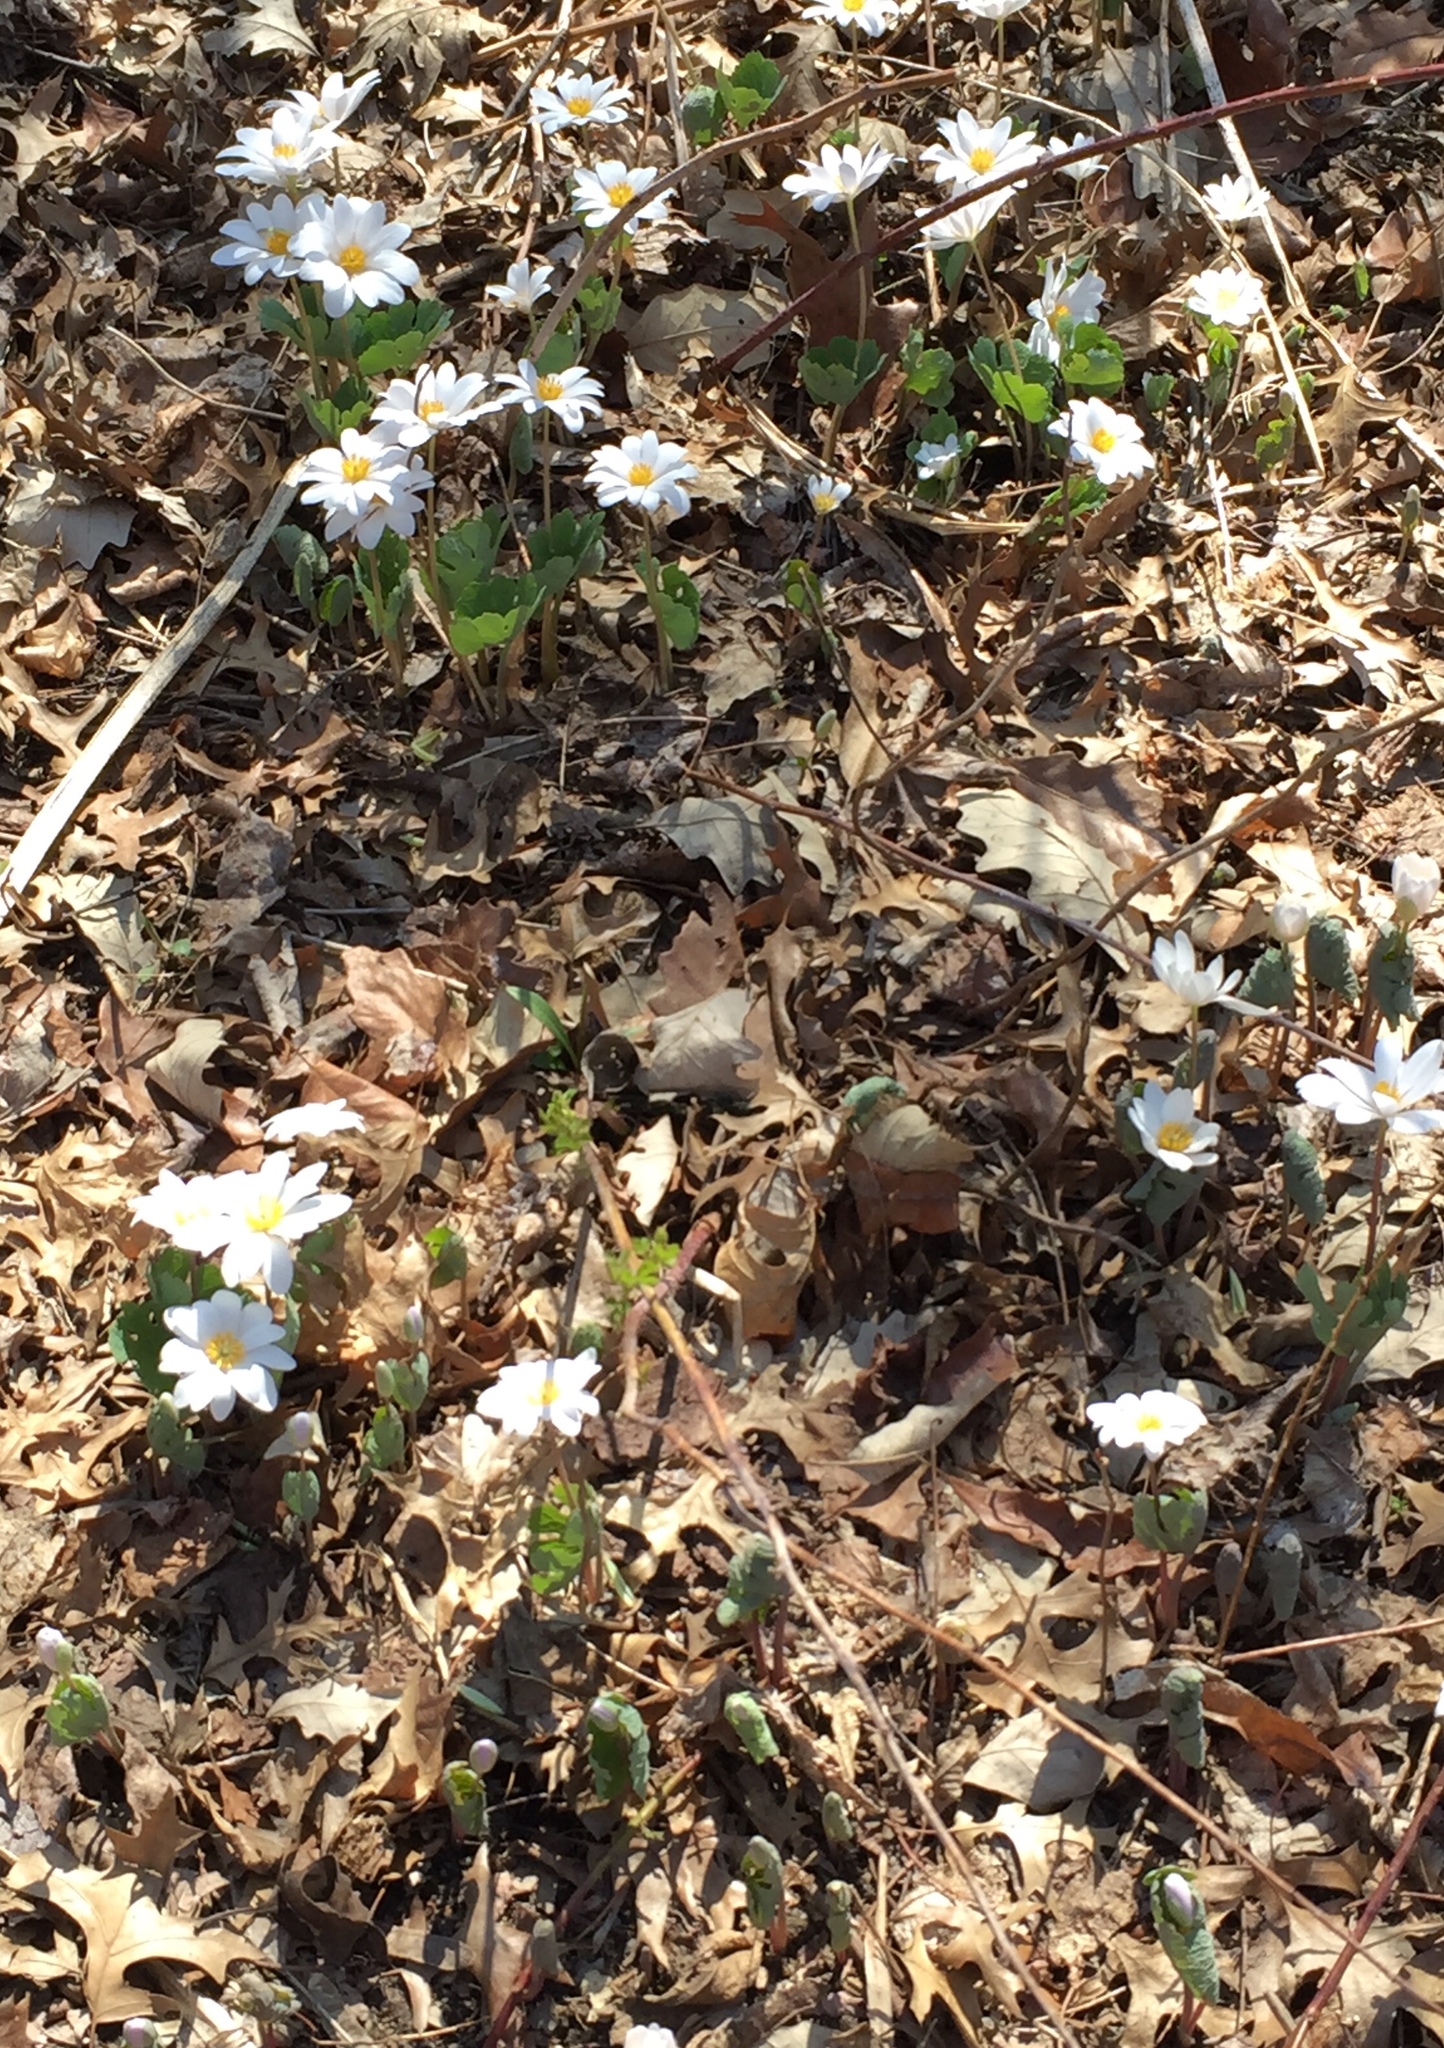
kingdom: Plantae
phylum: Tracheophyta
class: Magnoliopsida
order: Ranunculales
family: Papaveraceae
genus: Sanguinaria
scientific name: Sanguinaria canadensis
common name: Bloodroot
